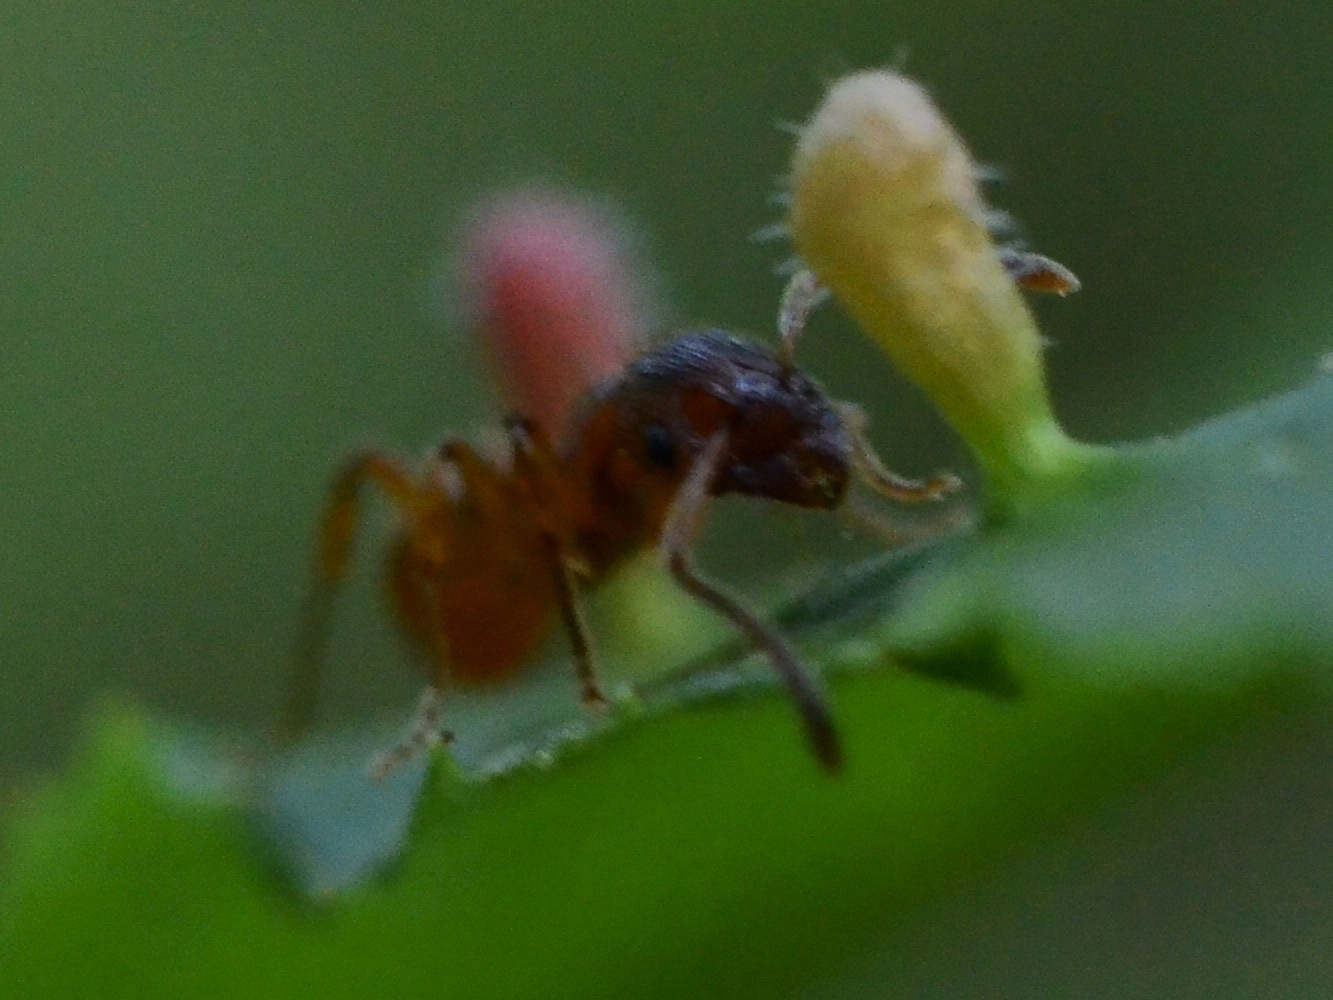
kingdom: Animalia
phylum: Arthropoda
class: Insecta
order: Hymenoptera
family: Formicidae
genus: Myrmica
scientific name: Myrmica
